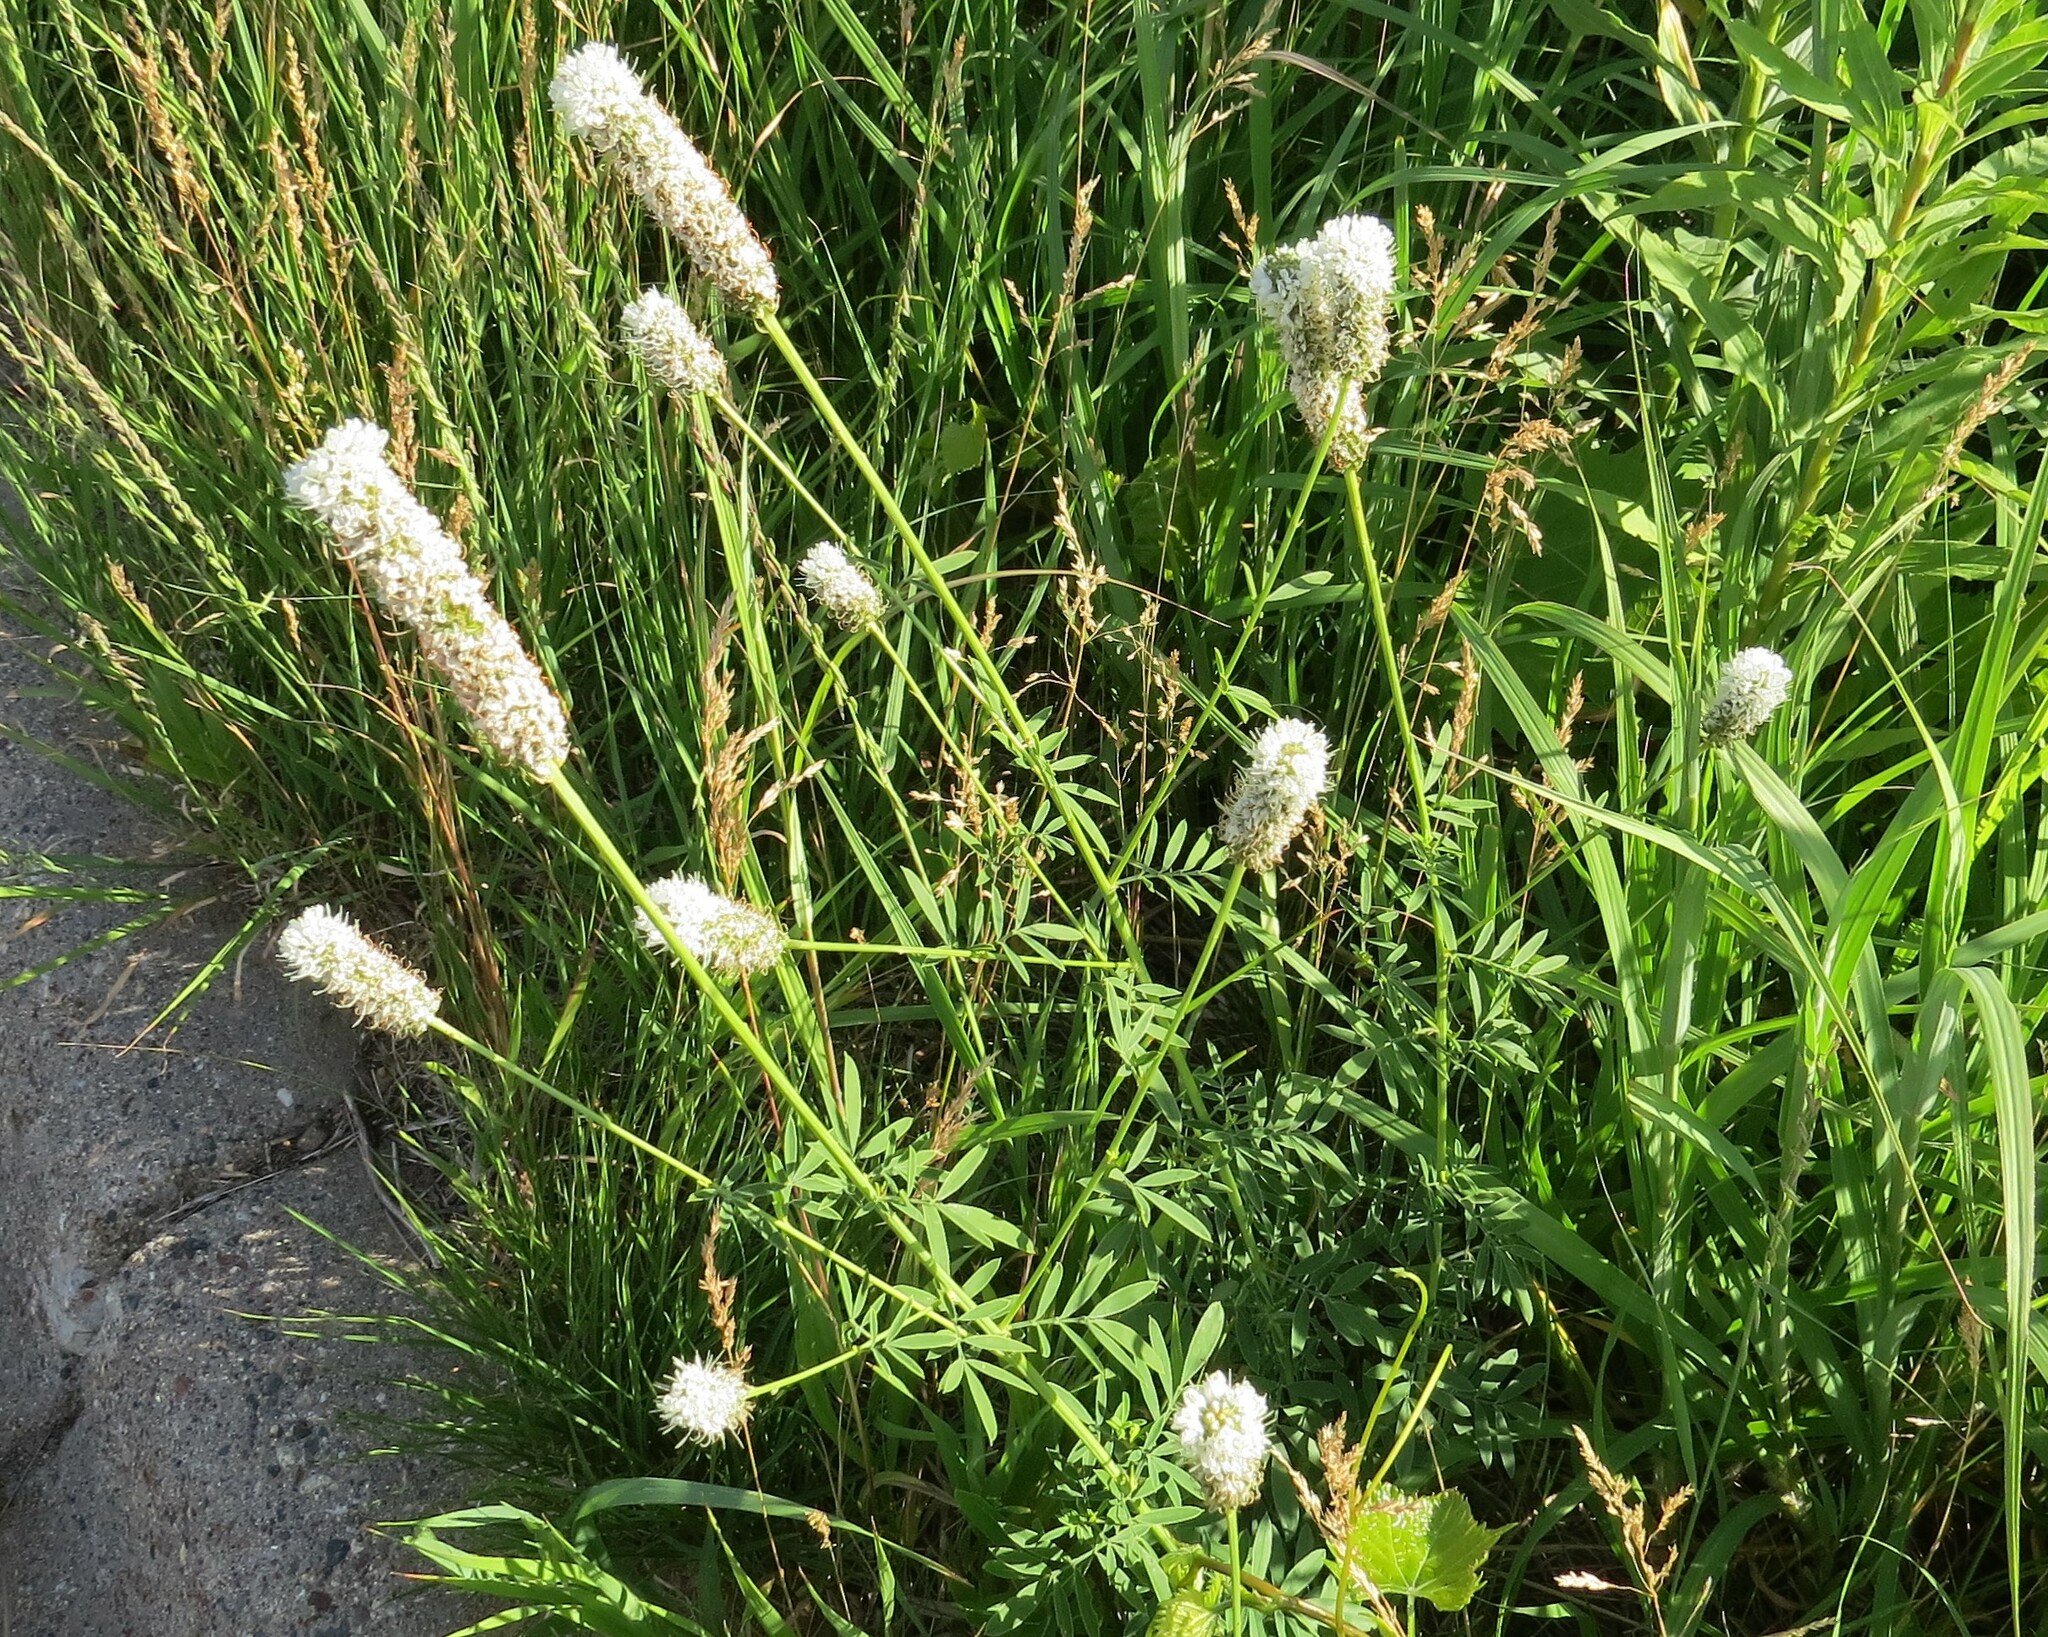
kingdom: Plantae
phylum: Tracheophyta
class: Magnoliopsida
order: Fabales
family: Fabaceae
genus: Dalea
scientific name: Dalea candida
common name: White prairie-clover
